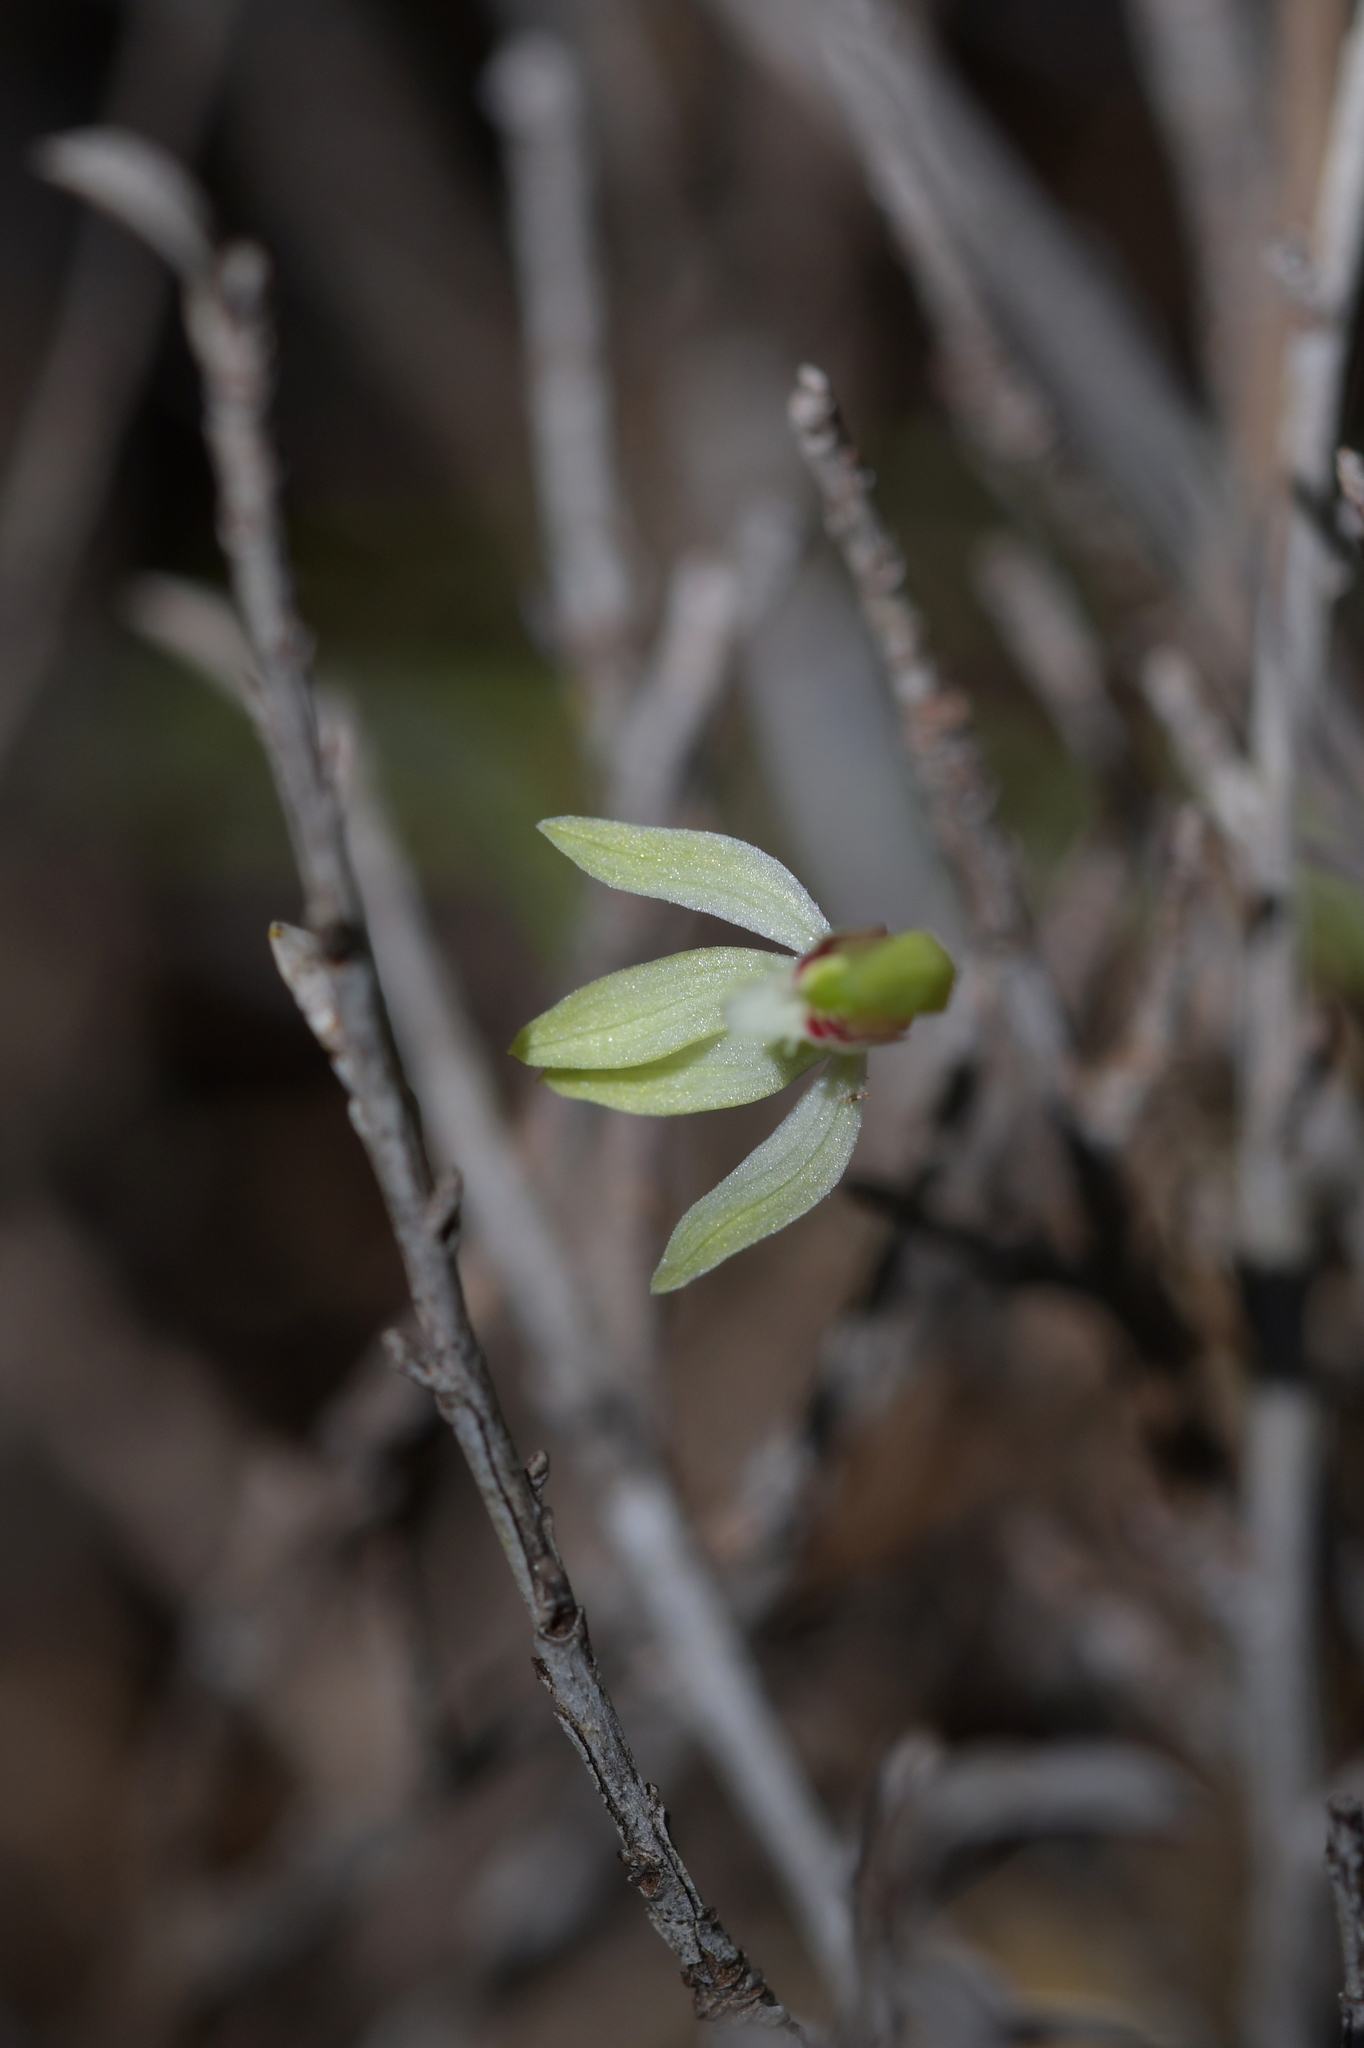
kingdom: Plantae
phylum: Tracheophyta
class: Liliopsida
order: Asparagales
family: Orchidaceae
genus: Caladenia
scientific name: Caladenia chlorostyla
